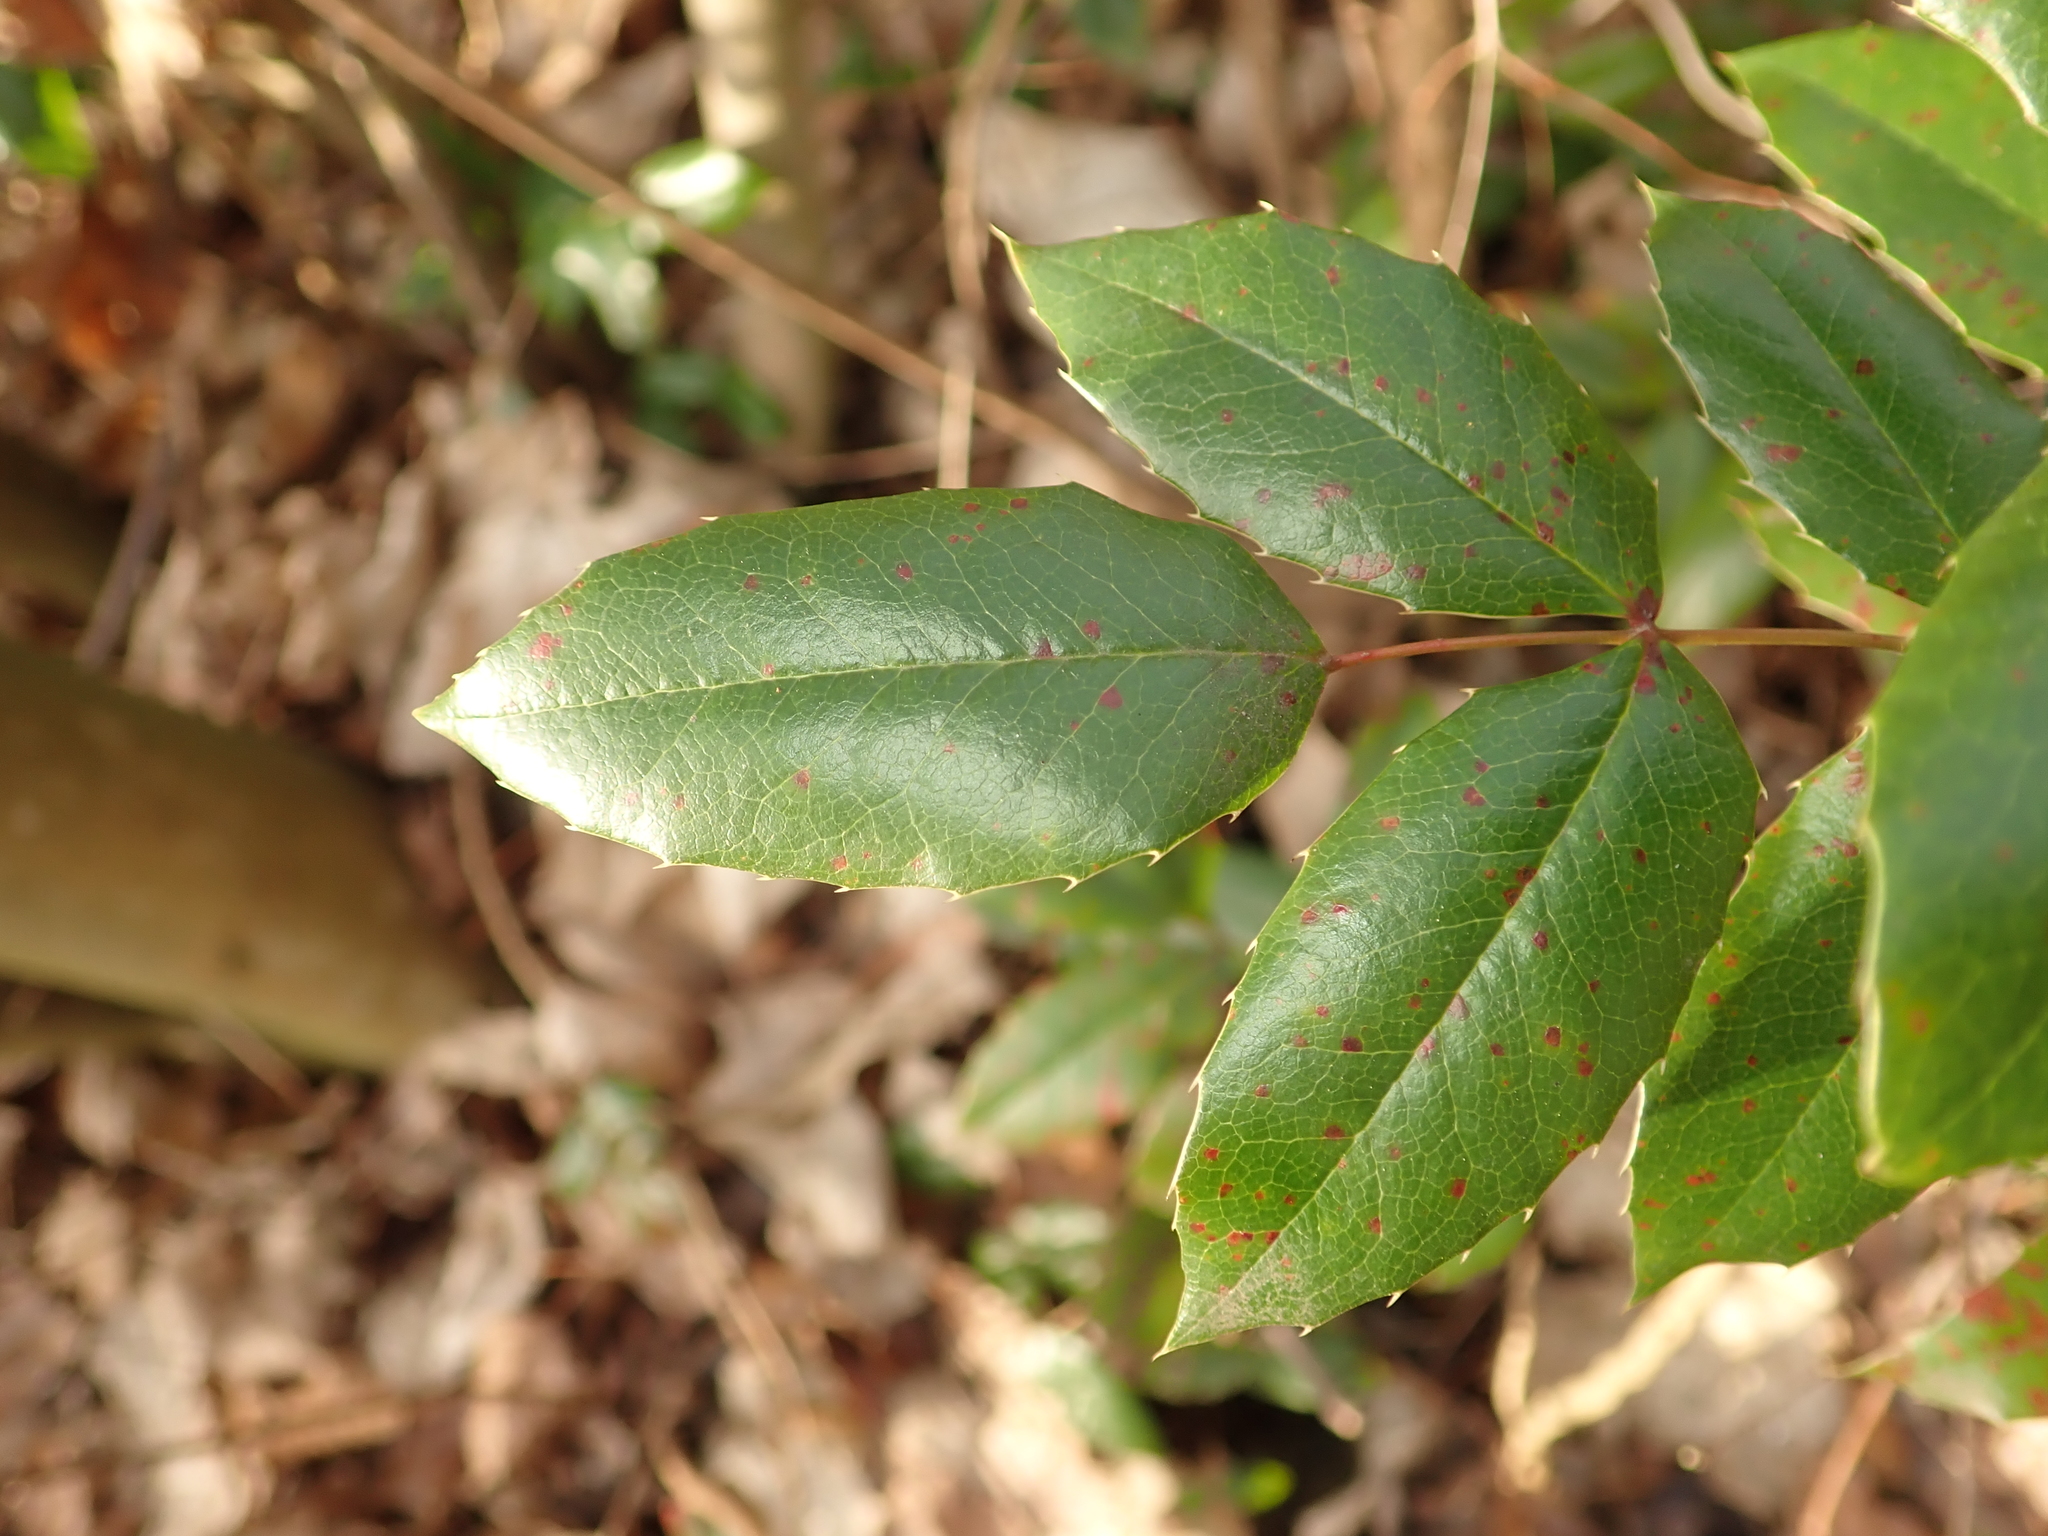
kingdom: Plantae
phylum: Tracheophyta
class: Magnoliopsida
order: Ranunculales
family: Berberidaceae
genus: Mahonia
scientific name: Mahonia aquifolium
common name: Oregon-grape
